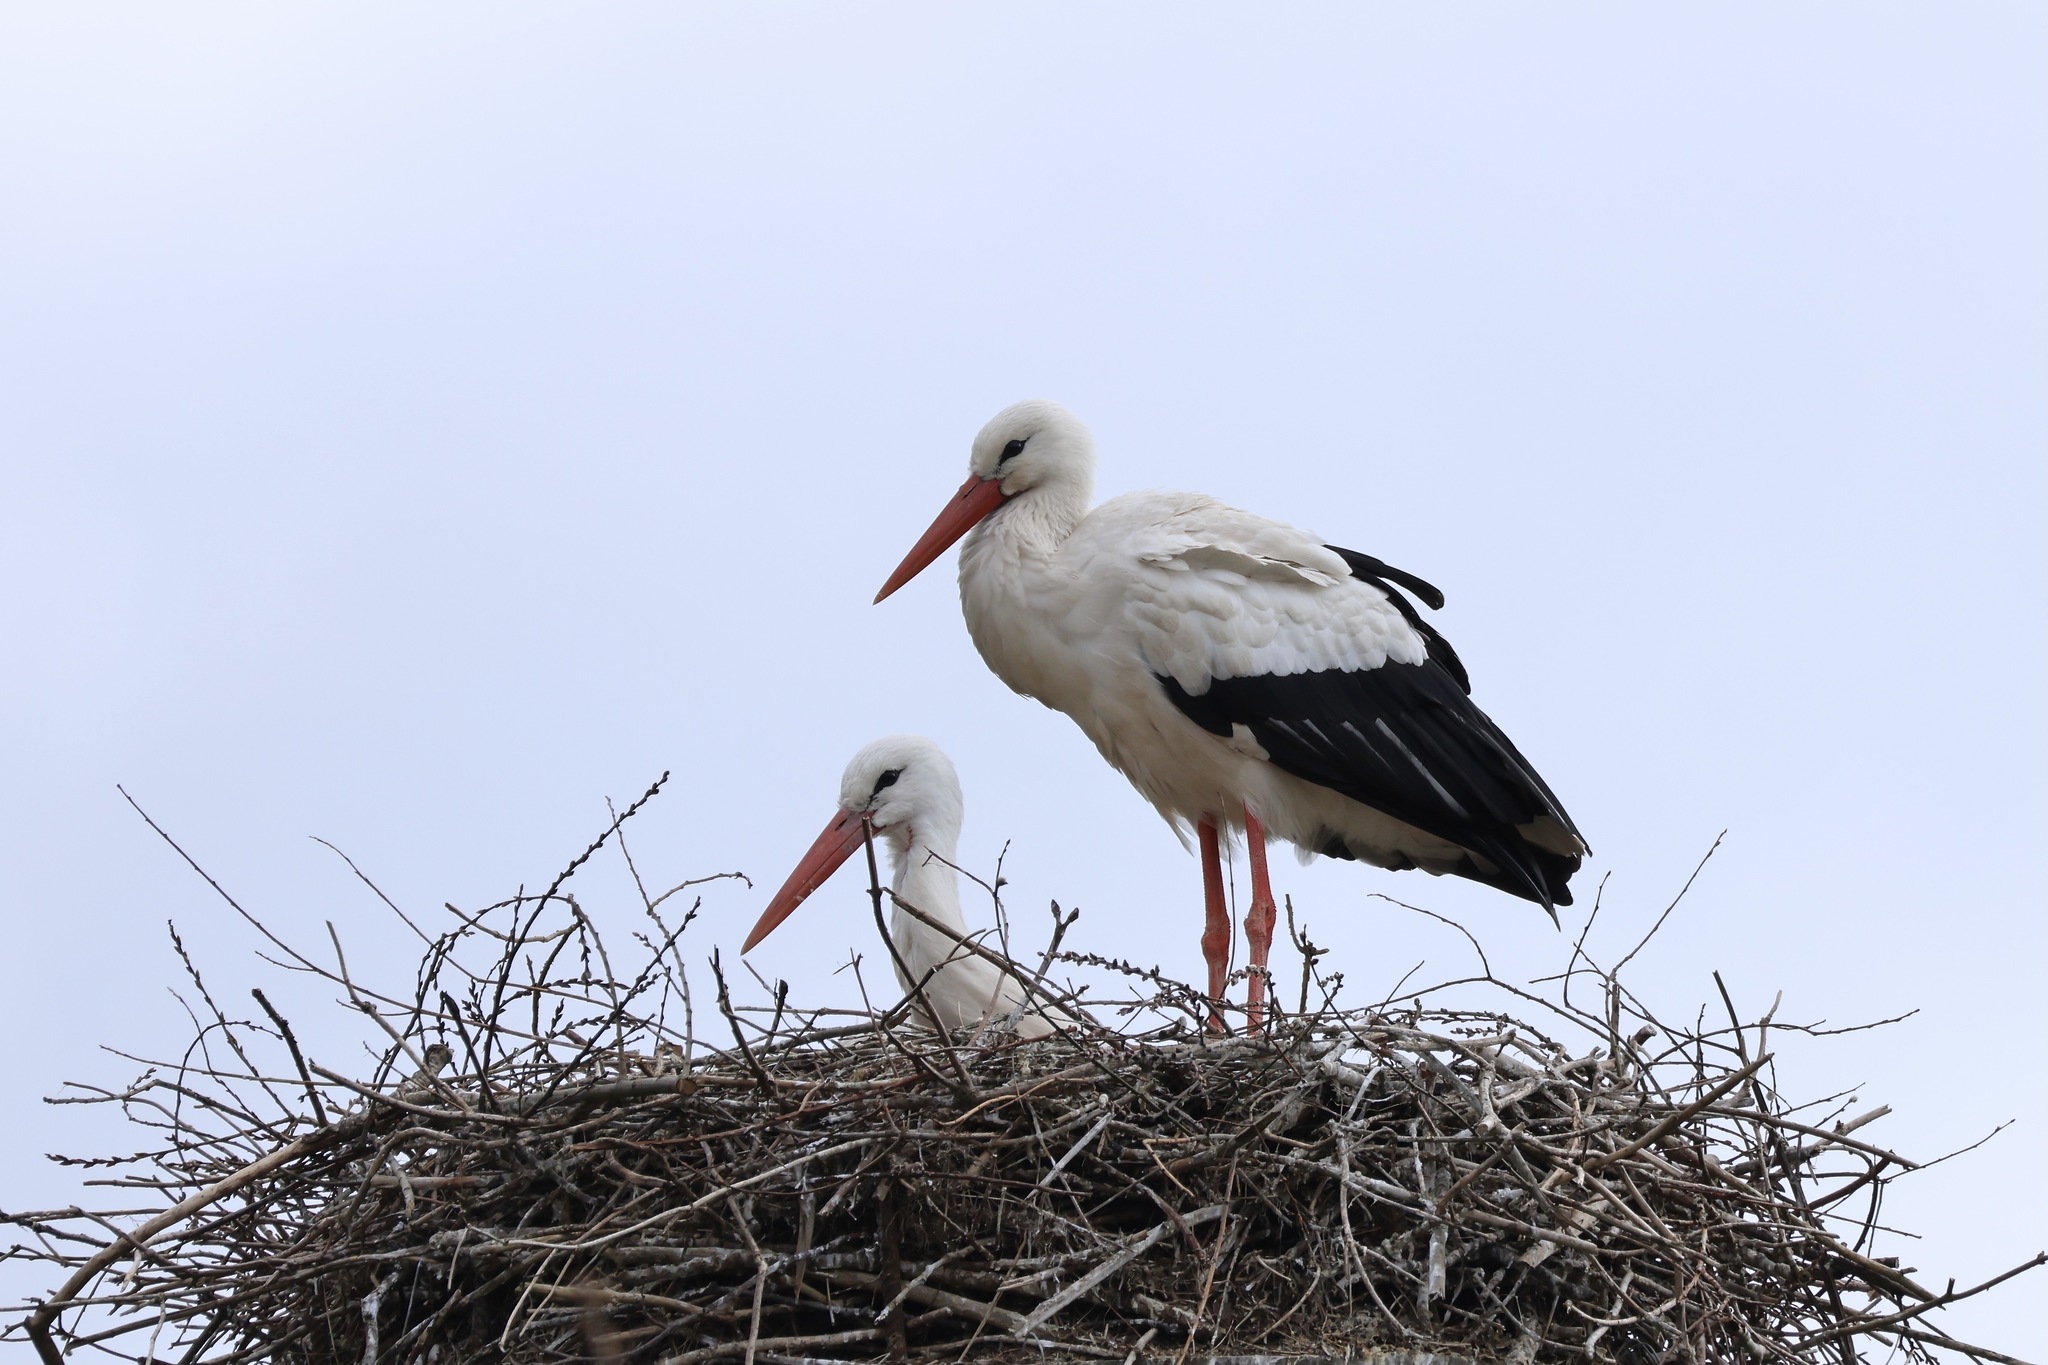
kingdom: Animalia
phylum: Chordata
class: Aves
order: Ciconiiformes
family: Ciconiidae
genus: Ciconia
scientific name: Ciconia ciconia
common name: White stork
